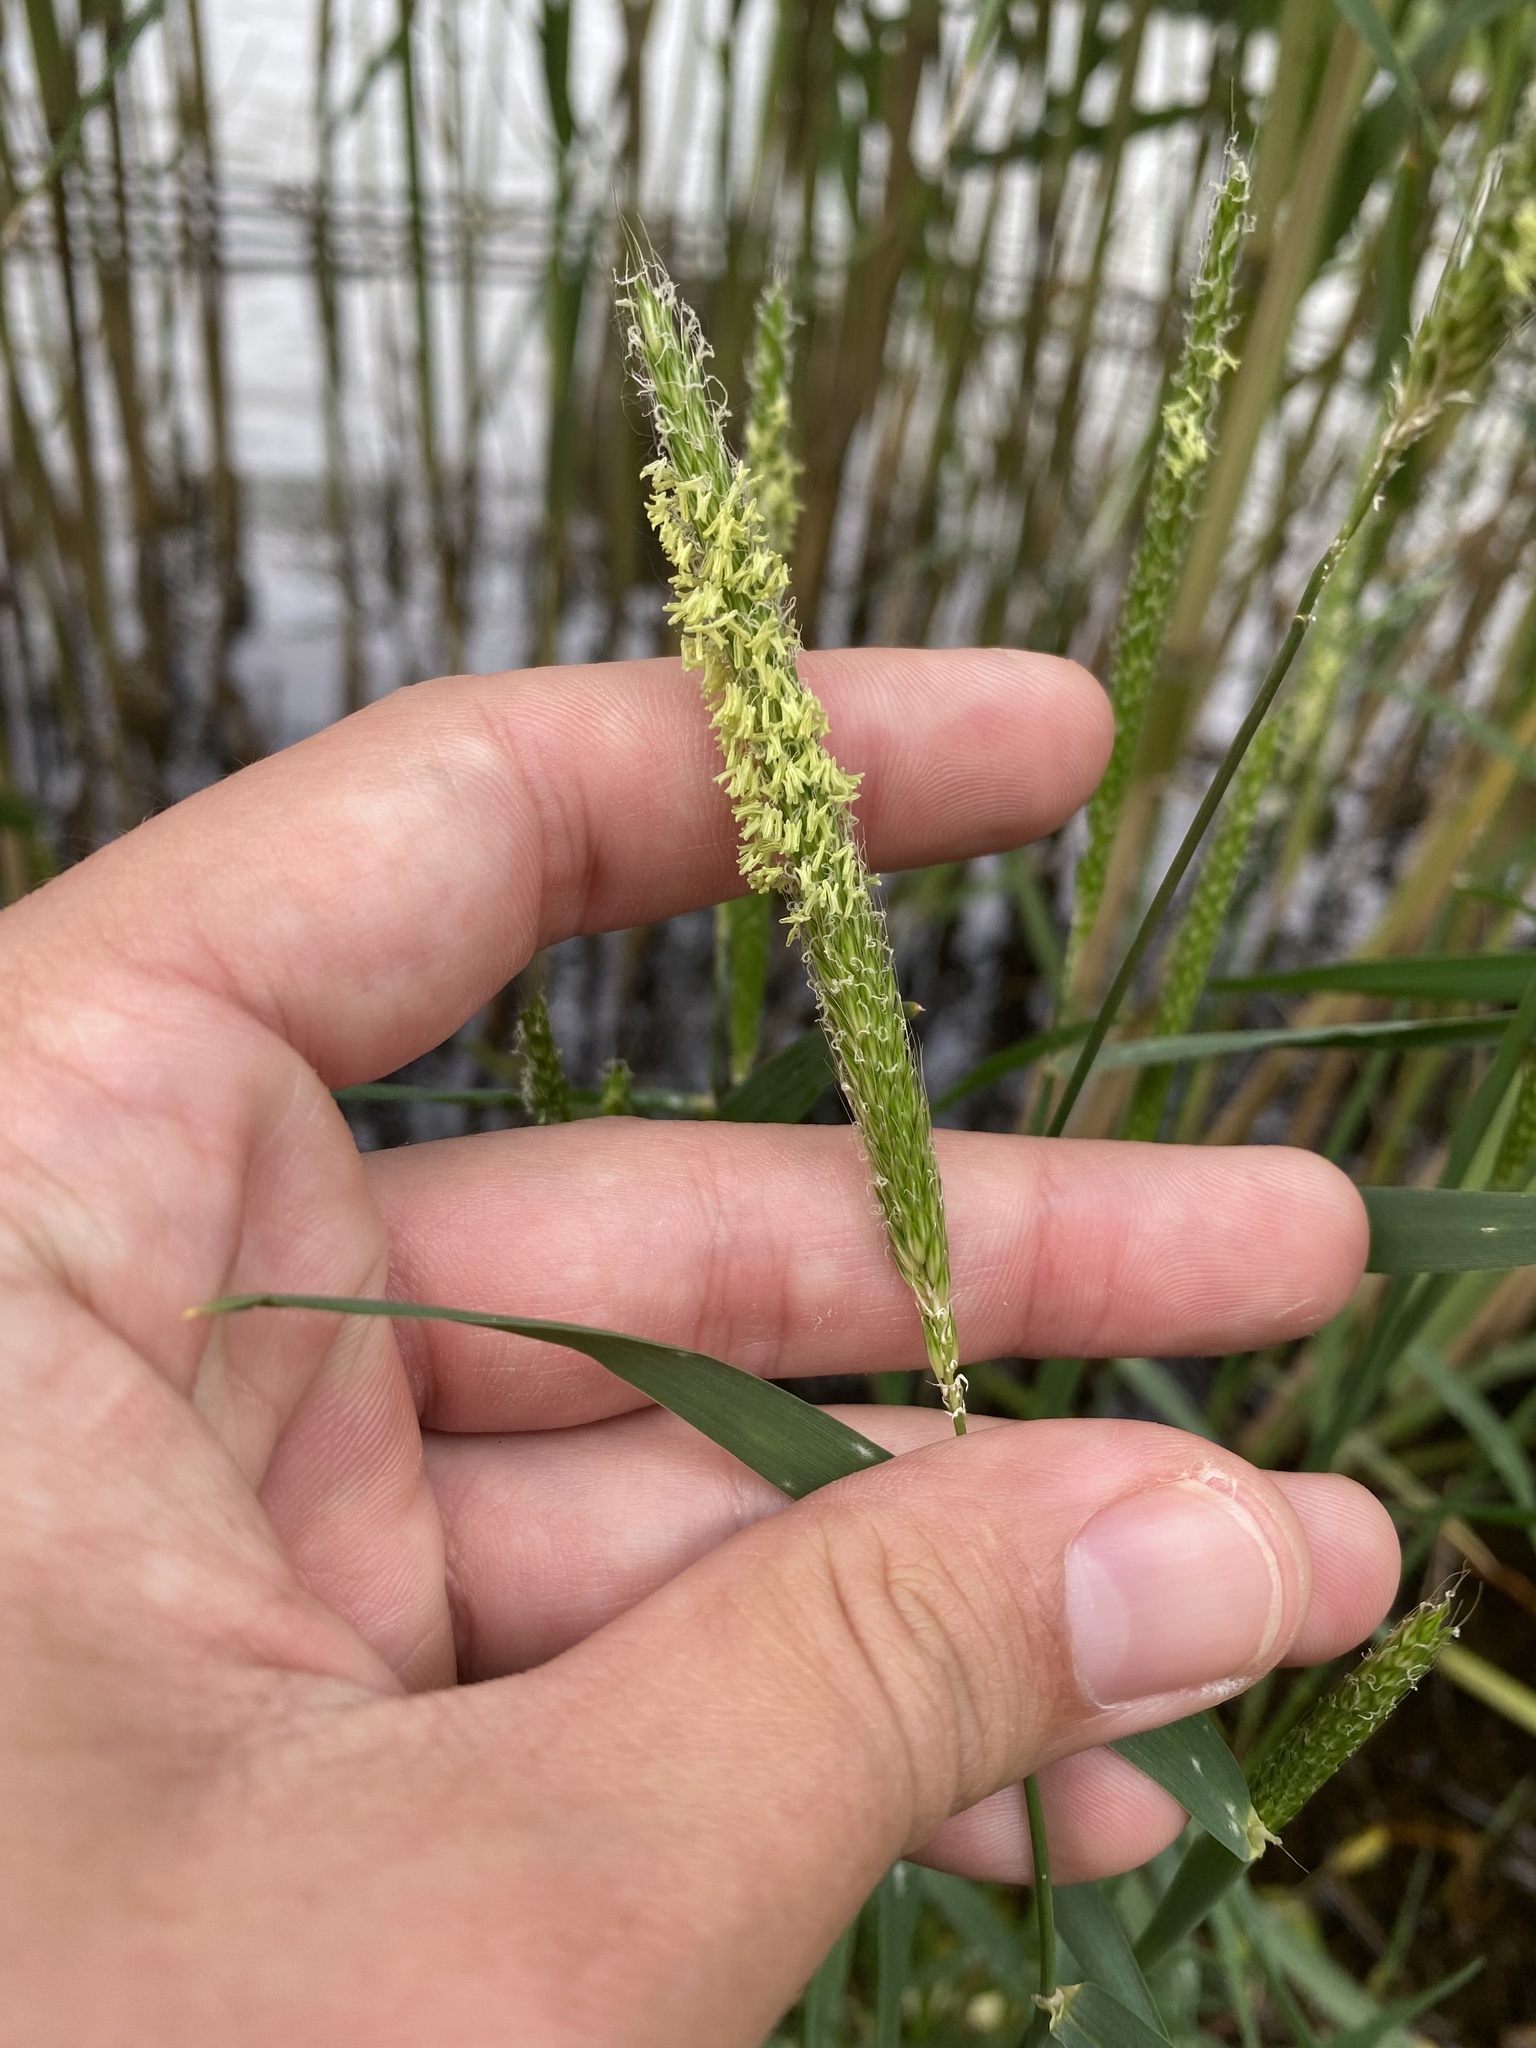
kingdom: Plantae
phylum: Tracheophyta
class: Liliopsida
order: Poales
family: Poaceae
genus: Alopecurus
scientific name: Alopecurus myosuroides
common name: Black-grass
